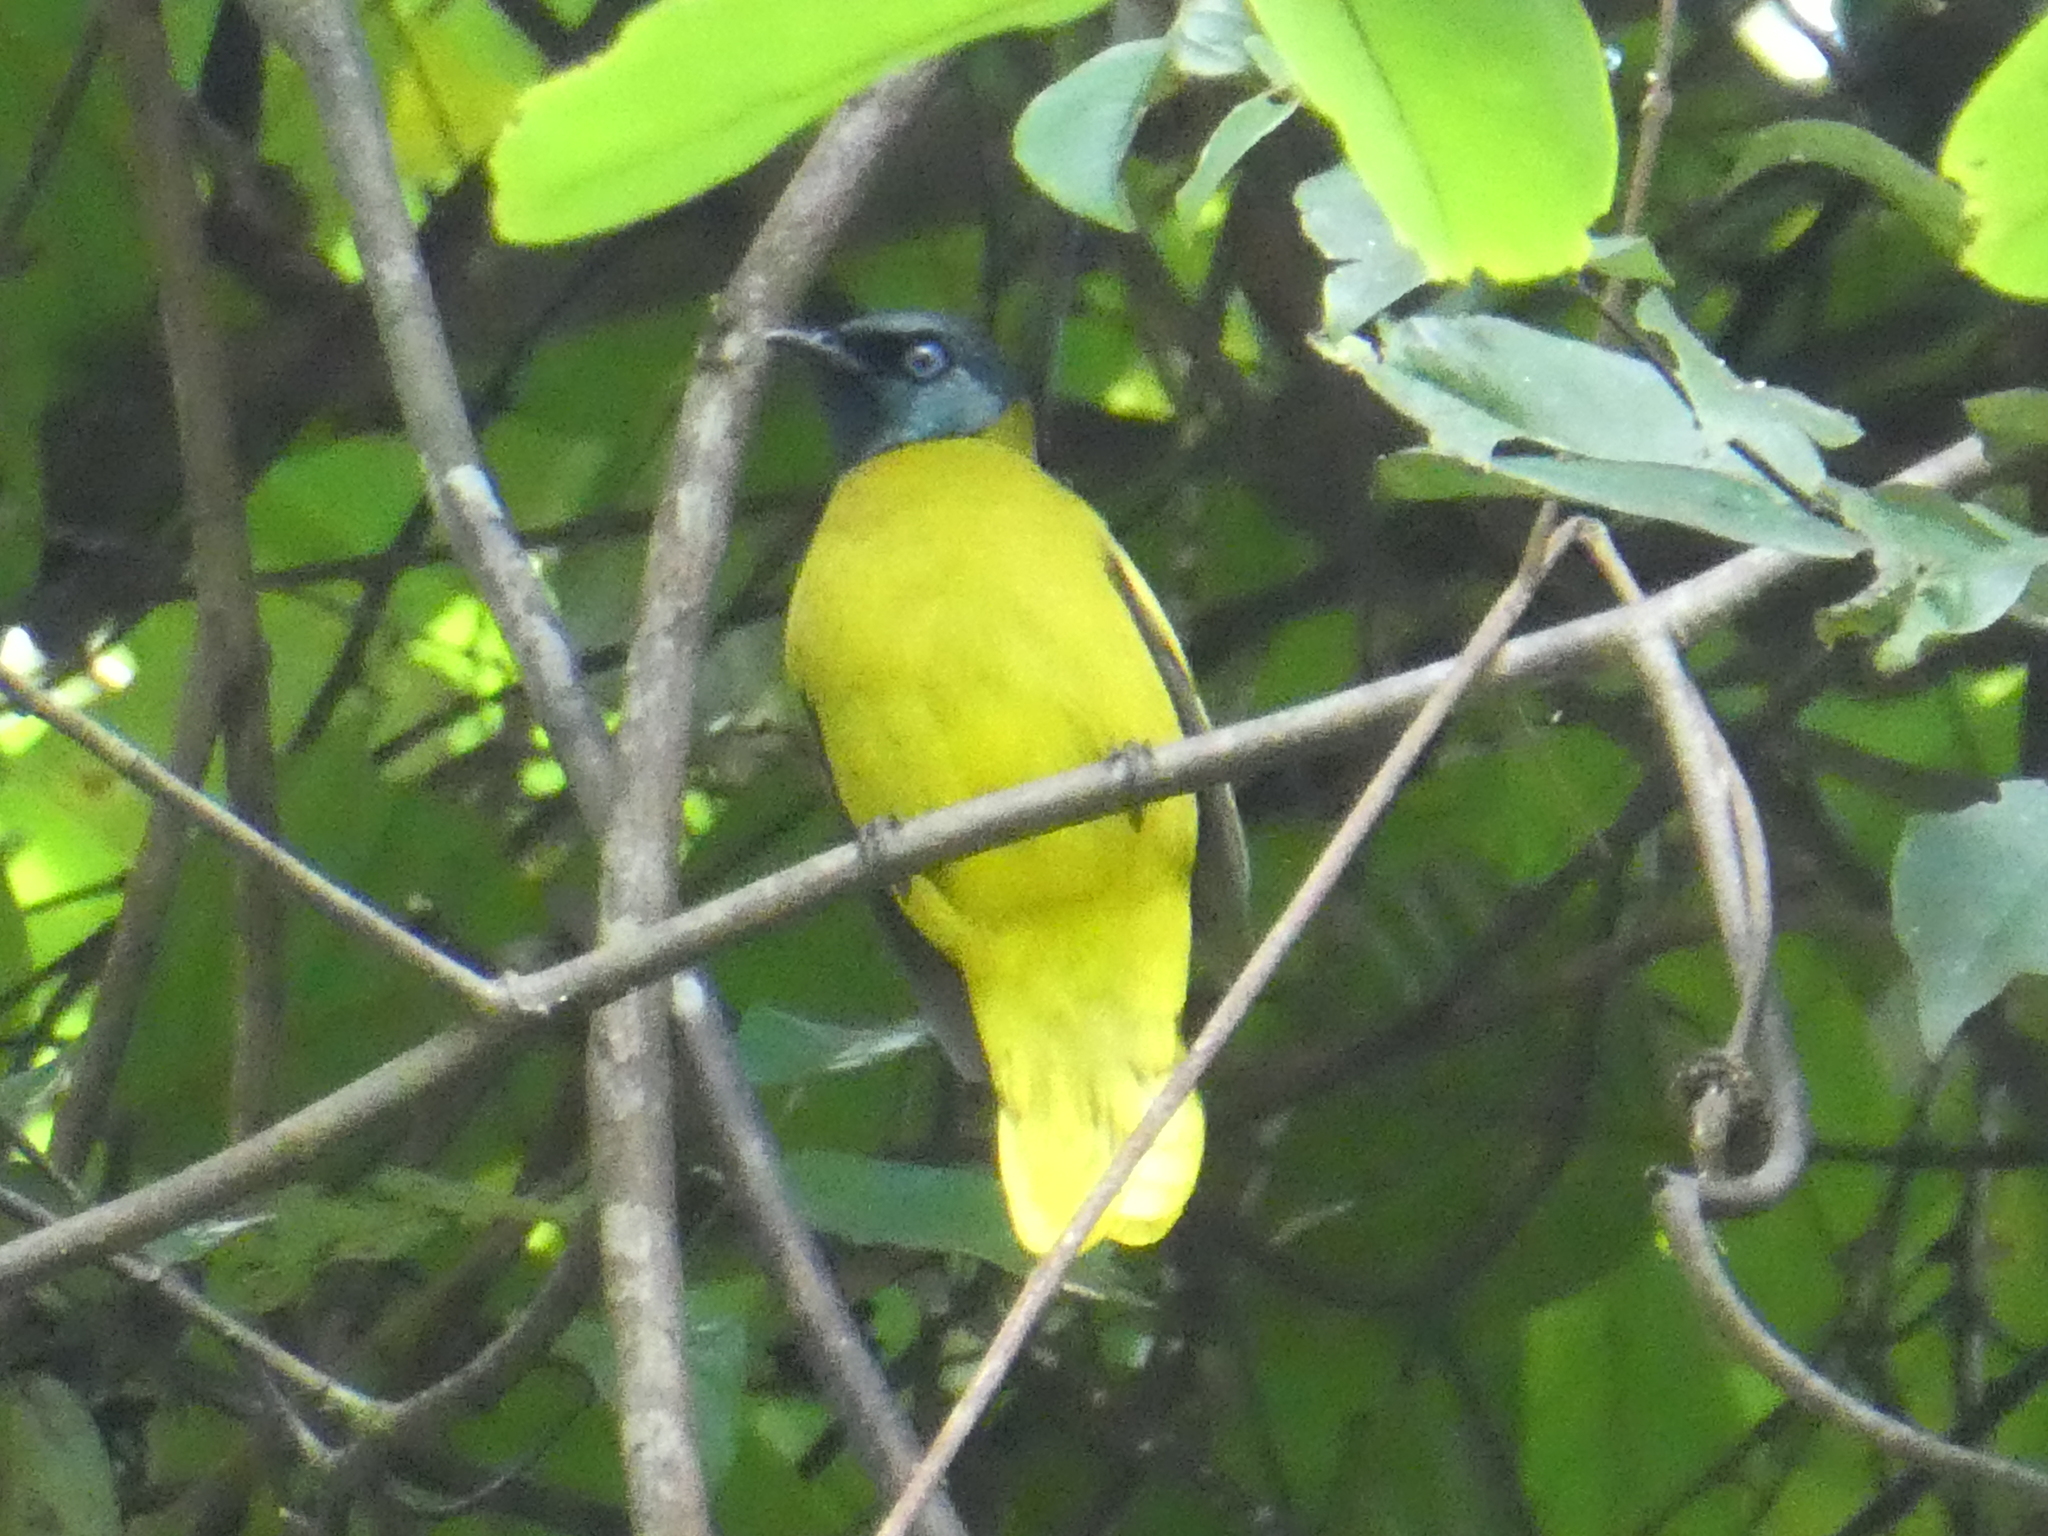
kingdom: Animalia
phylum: Chordata
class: Aves
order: Passeriformes
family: Pycnonotidae
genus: Microtarsus
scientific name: Microtarsus
